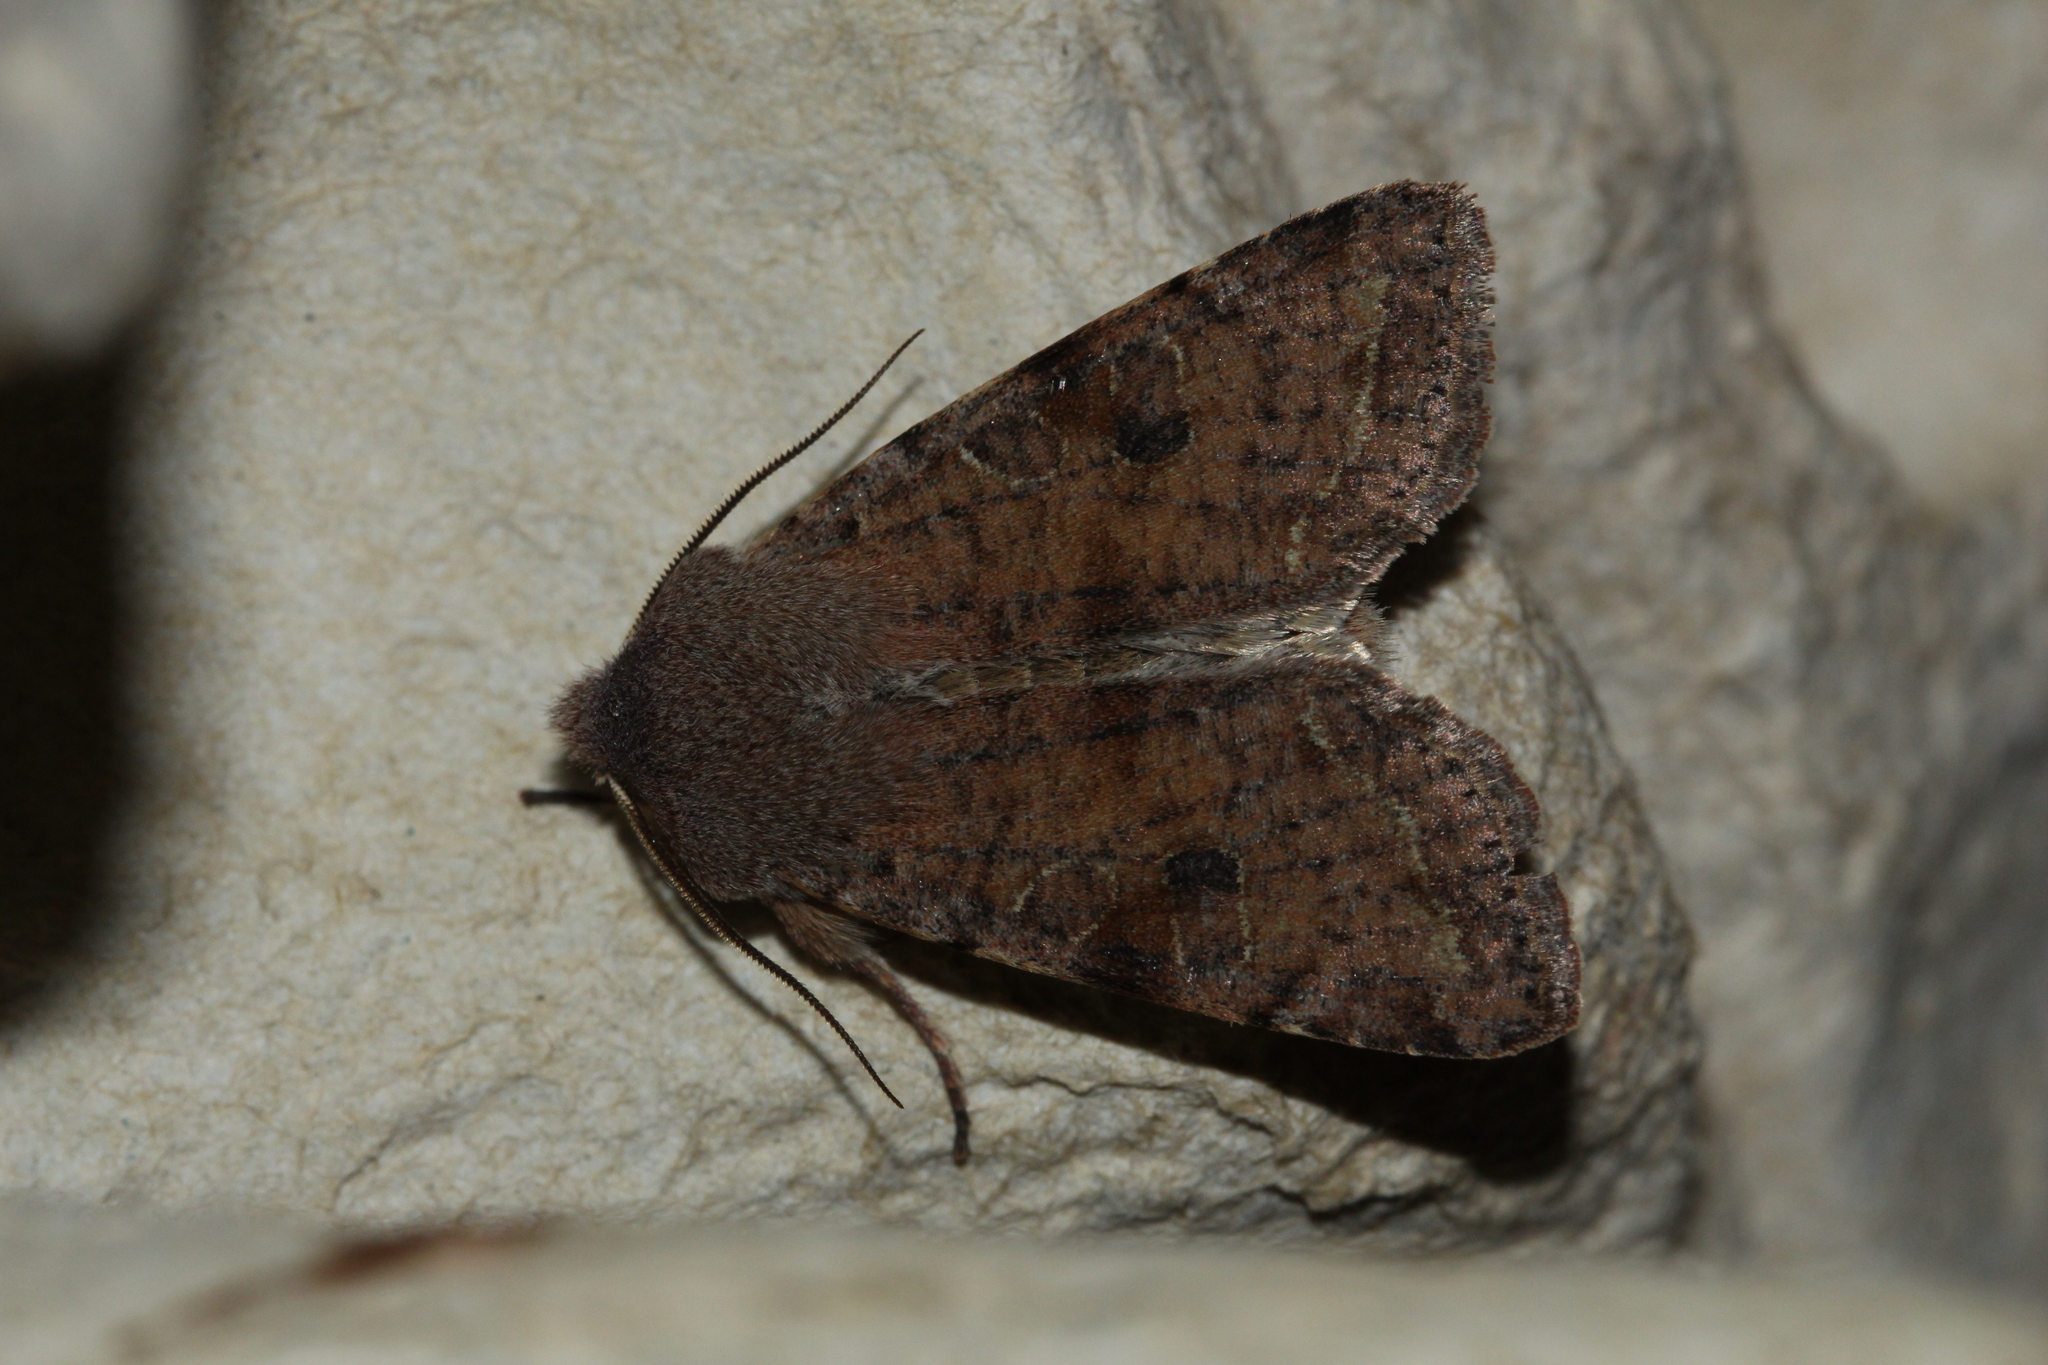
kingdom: Animalia
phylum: Arthropoda
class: Insecta
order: Lepidoptera
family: Noctuidae
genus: Orthosia
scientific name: Orthosia incerta
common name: Clouded drab
